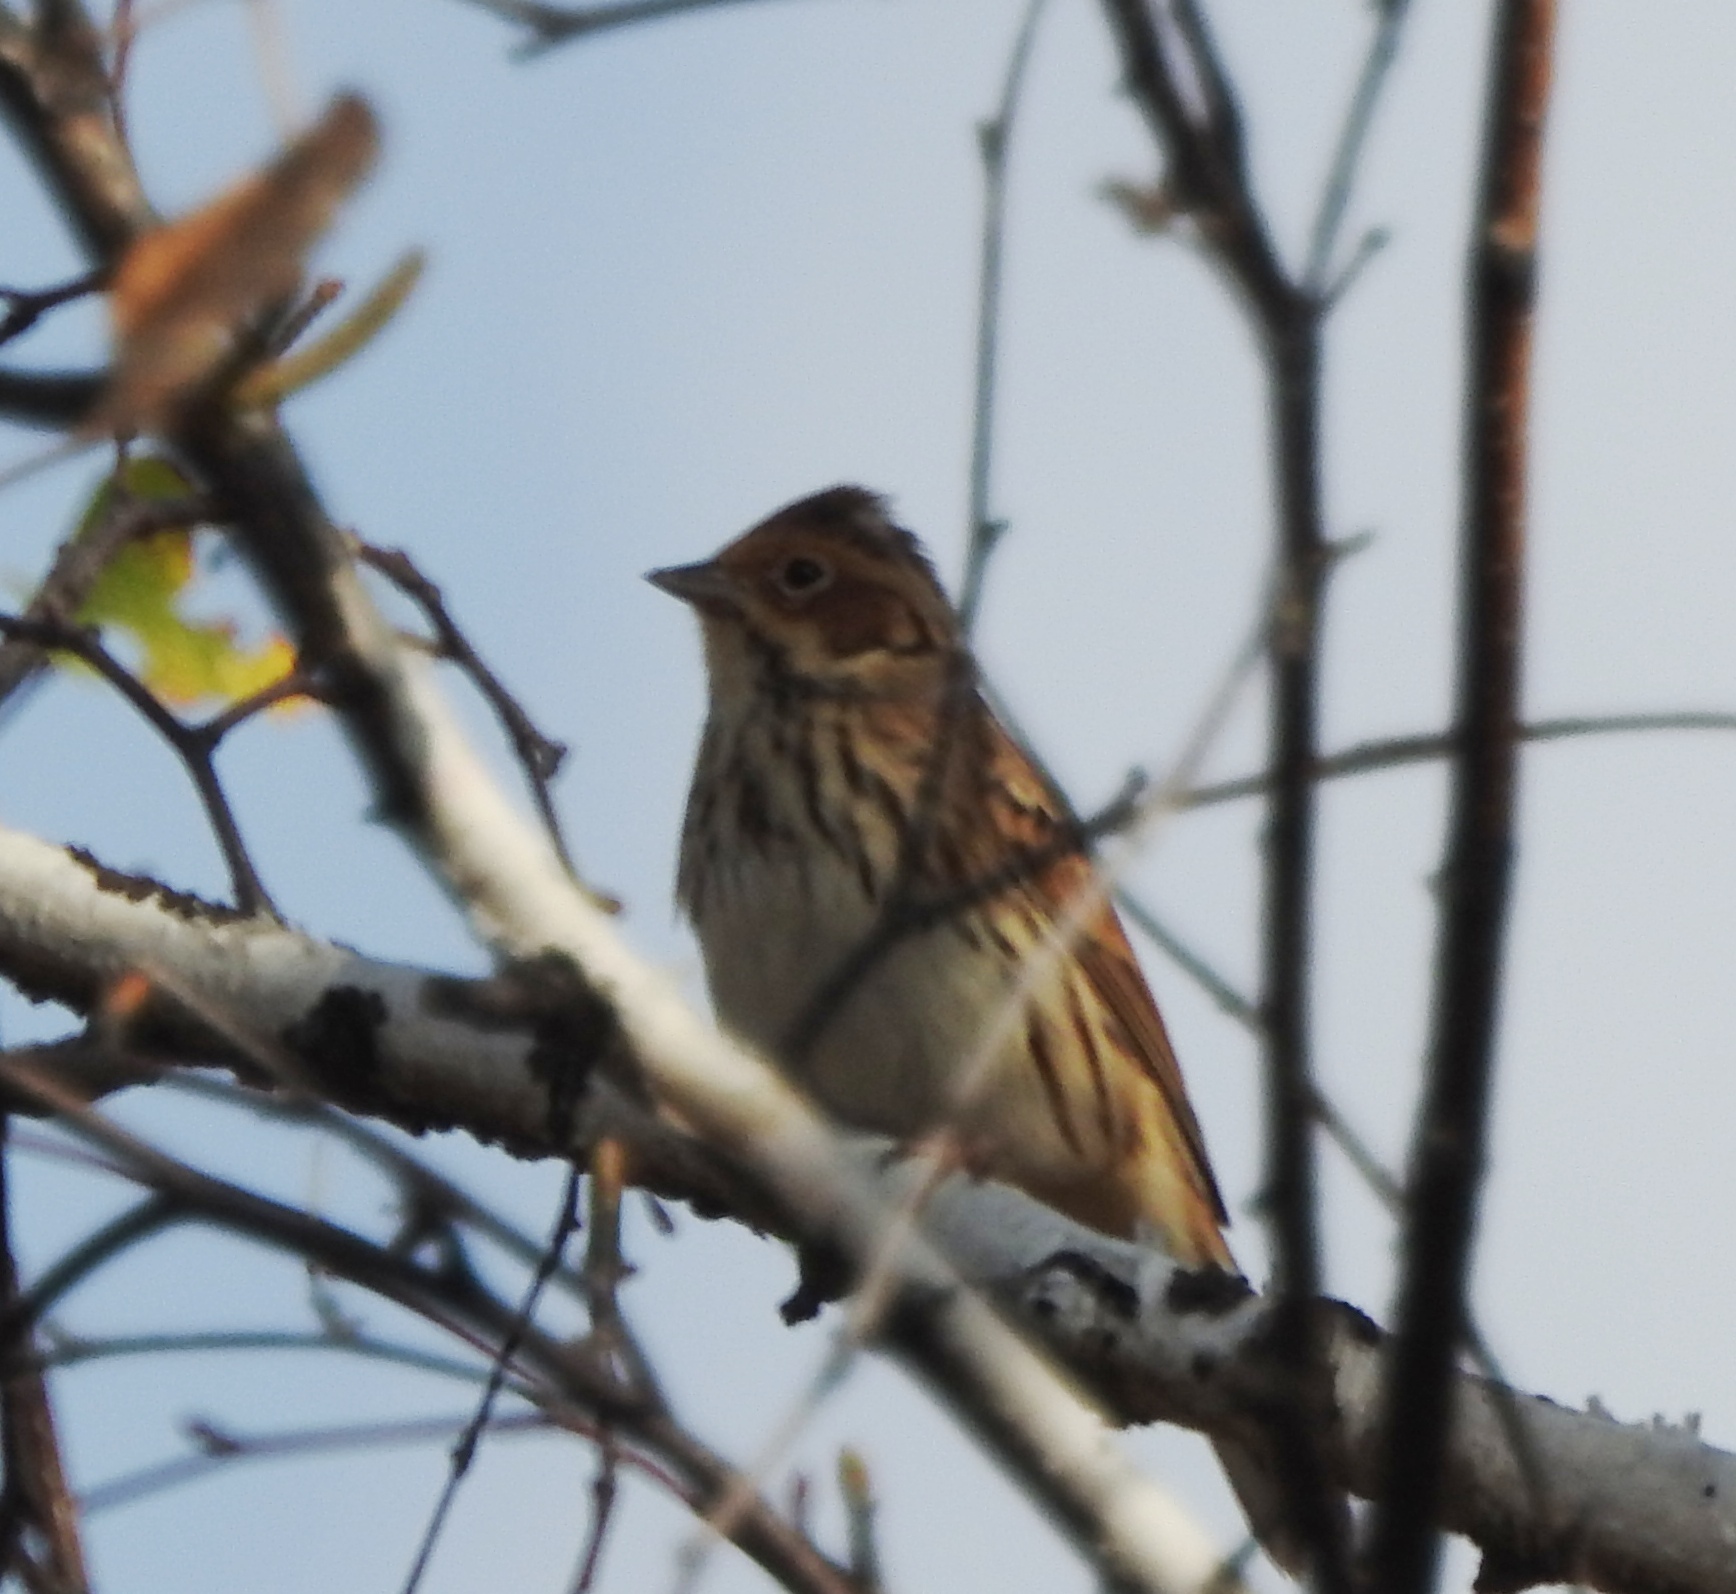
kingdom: Animalia
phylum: Chordata
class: Aves
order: Passeriformes
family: Emberizidae
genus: Emberiza
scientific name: Emberiza pusilla
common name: Little bunting
